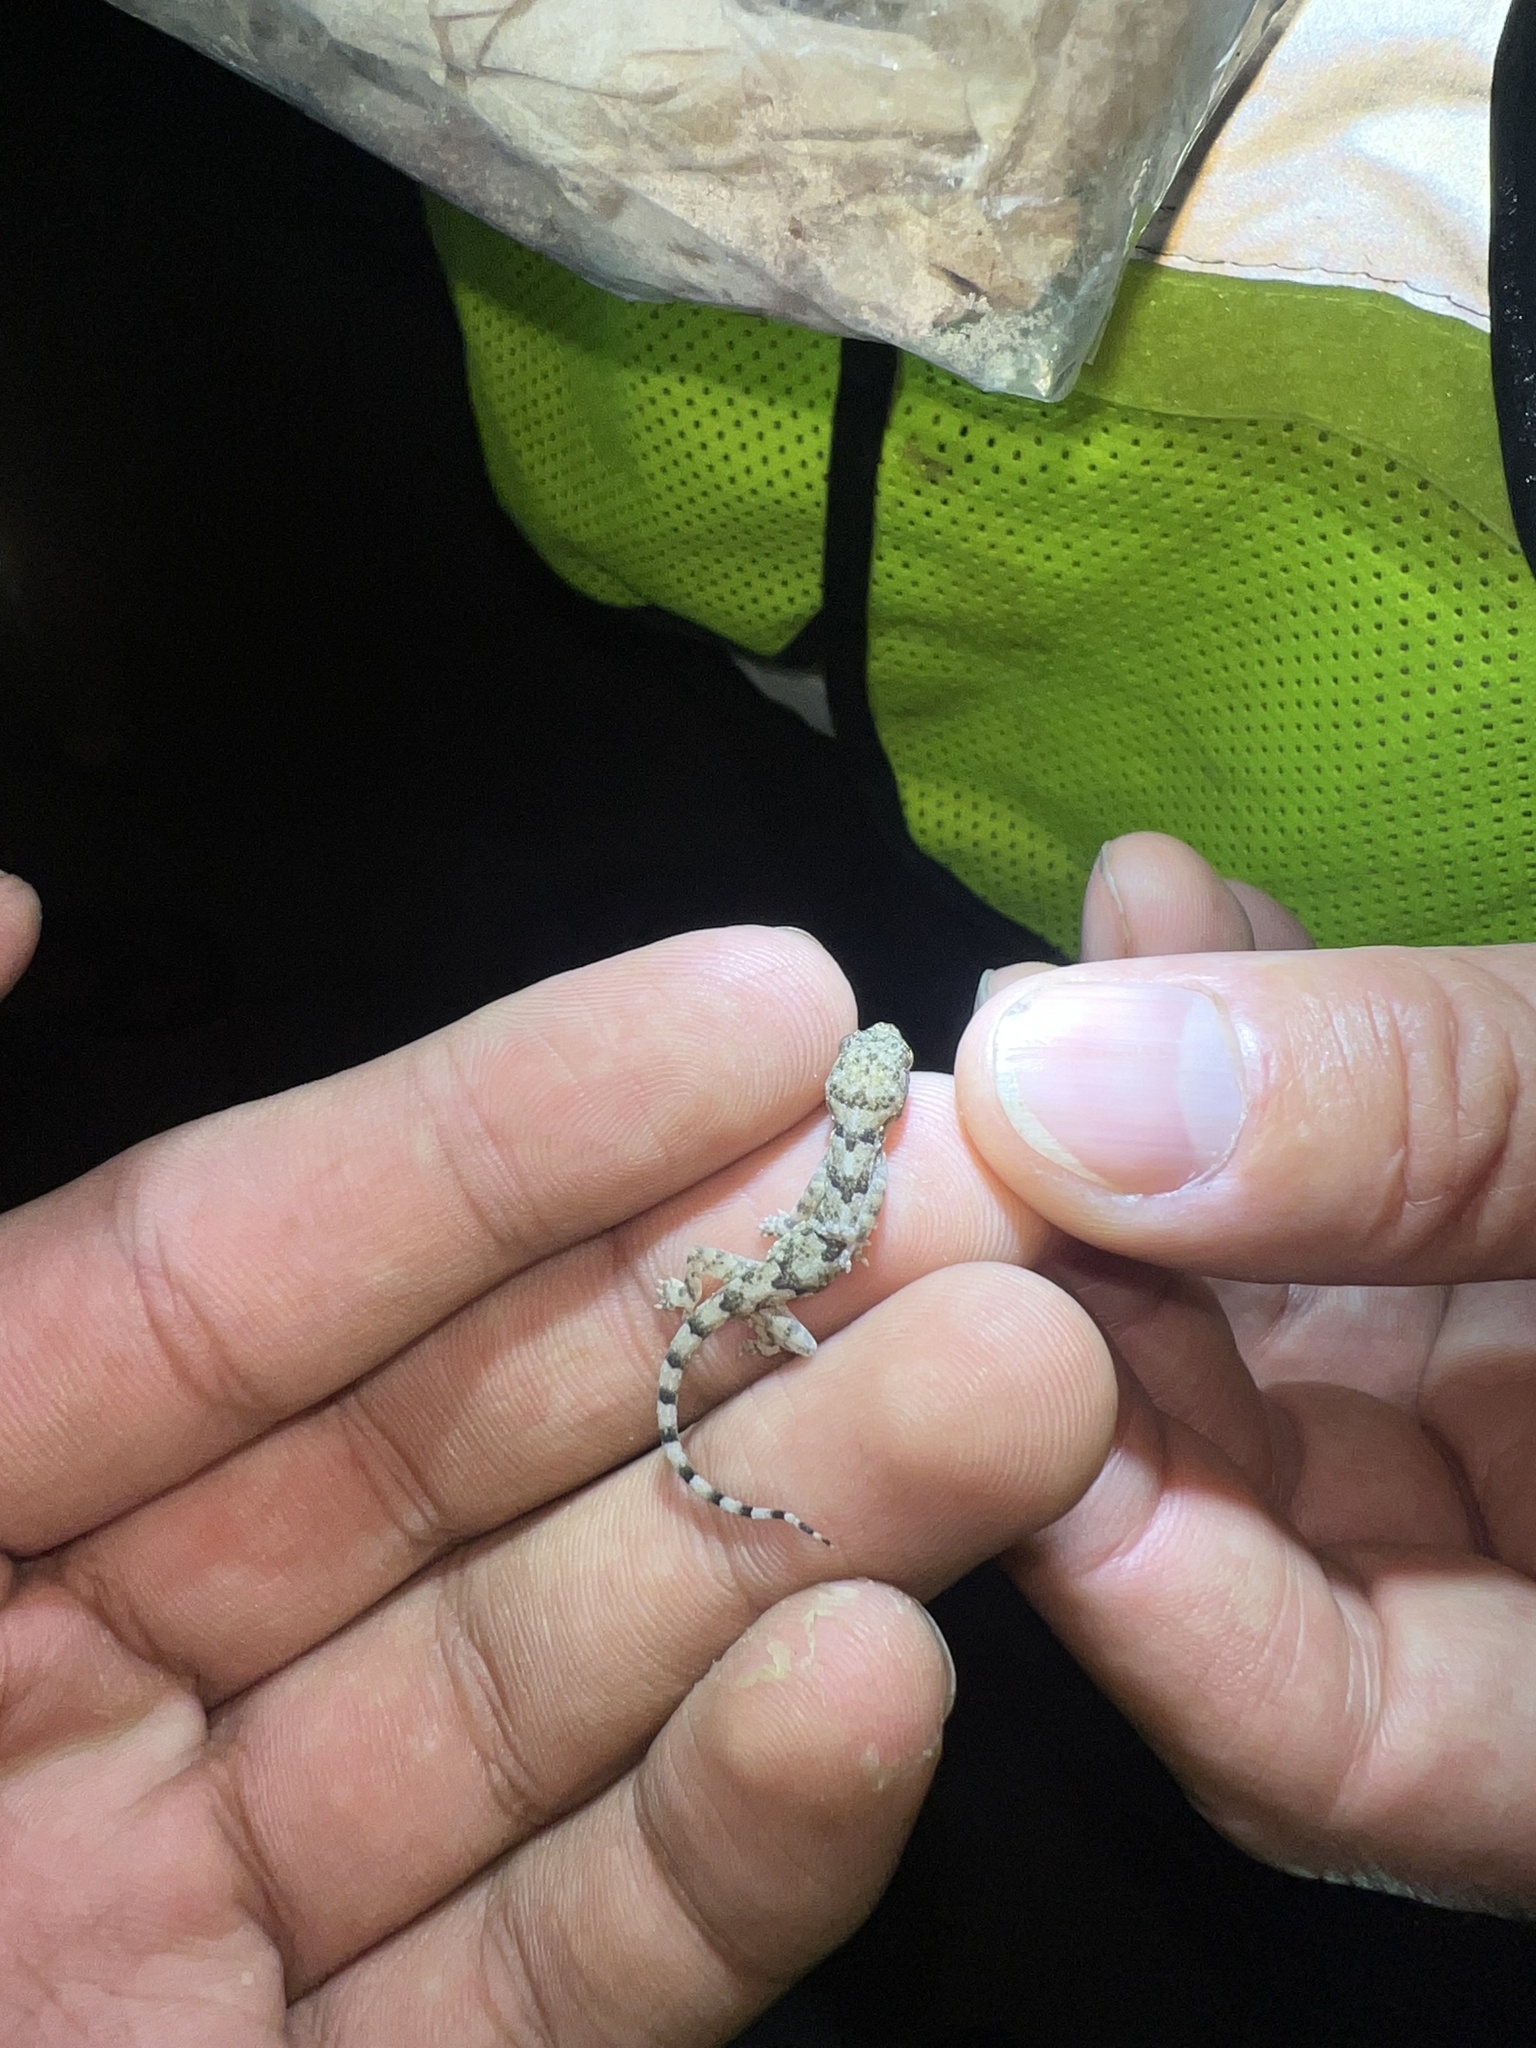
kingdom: Animalia
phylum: Chordata
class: Squamata
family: Gekkonidae
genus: Hemidactylus
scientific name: Hemidactylus mabouia
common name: House gecko
